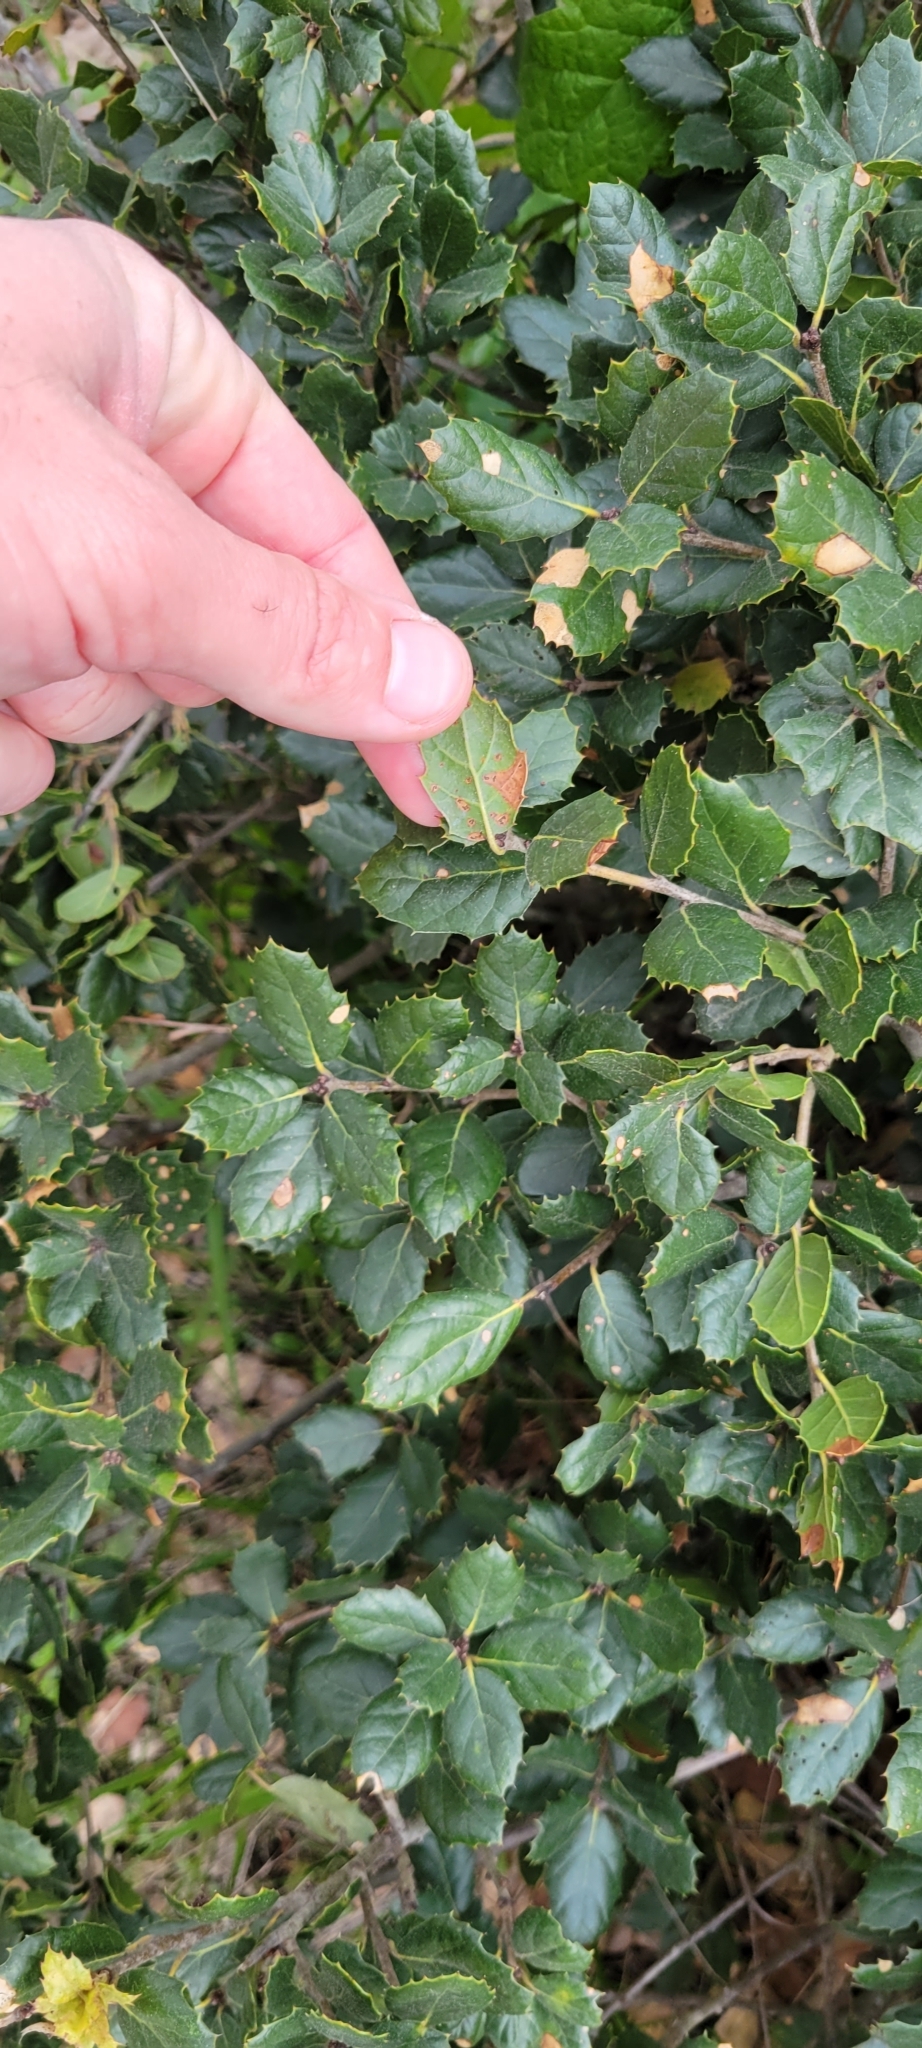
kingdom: Plantae
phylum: Tracheophyta
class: Magnoliopsida
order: Fagales
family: Fagaceae
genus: Quercus
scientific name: Quercus agrifolia
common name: California live oak
